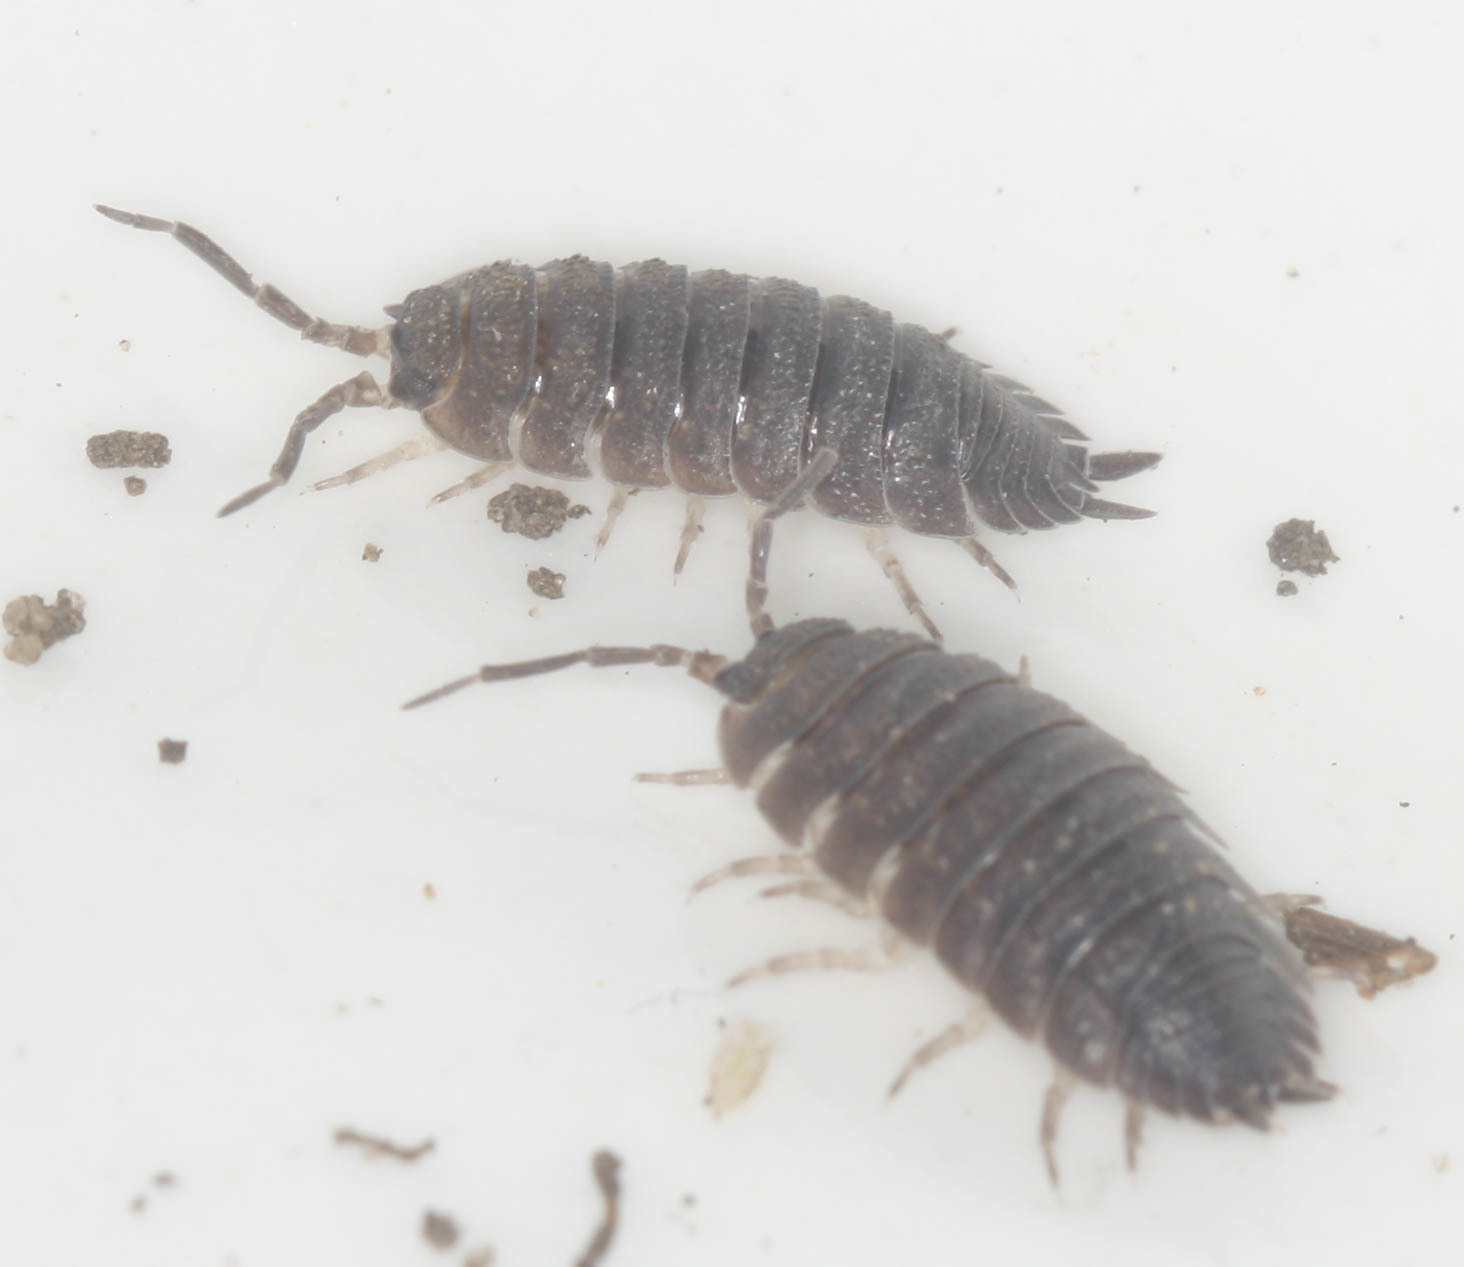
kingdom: Animalia
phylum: Arthropoda
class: Malacostraca
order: Isopoda
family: Porcellionidae
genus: Porcellio
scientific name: Porcellio scaber
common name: Common rough woodlouse
